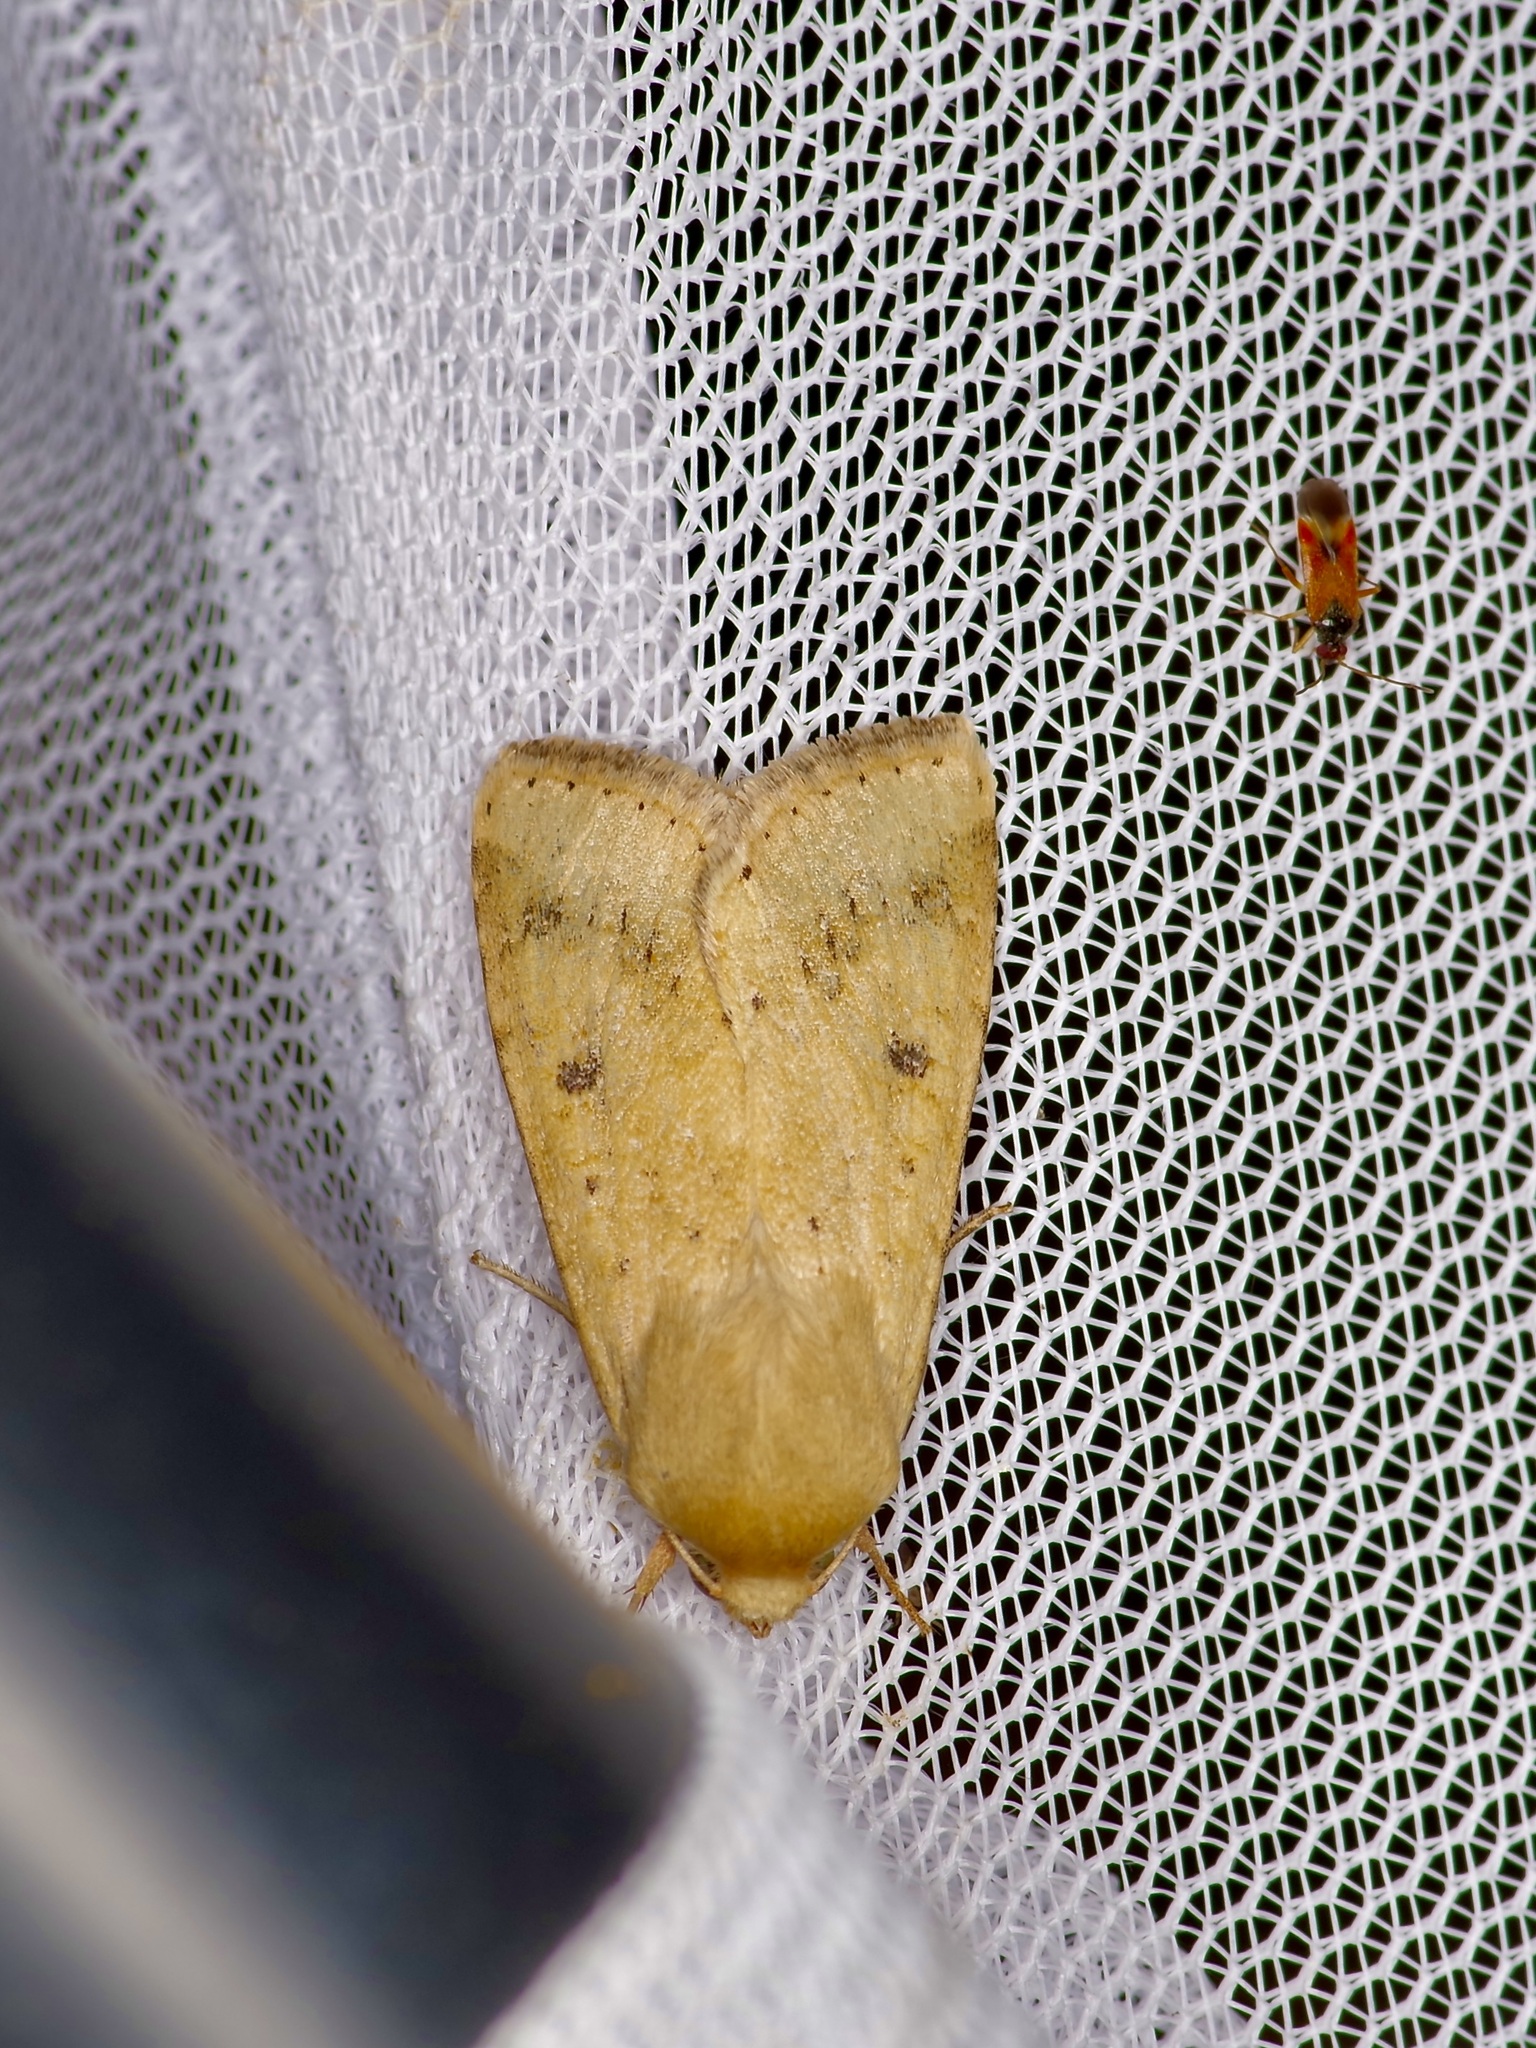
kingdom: Animalia
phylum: Arthropoda
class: Insecta
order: Lepidoptera
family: Noctuidae
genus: Helicoverpa
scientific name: Helicoverpa zea
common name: Bollworm
